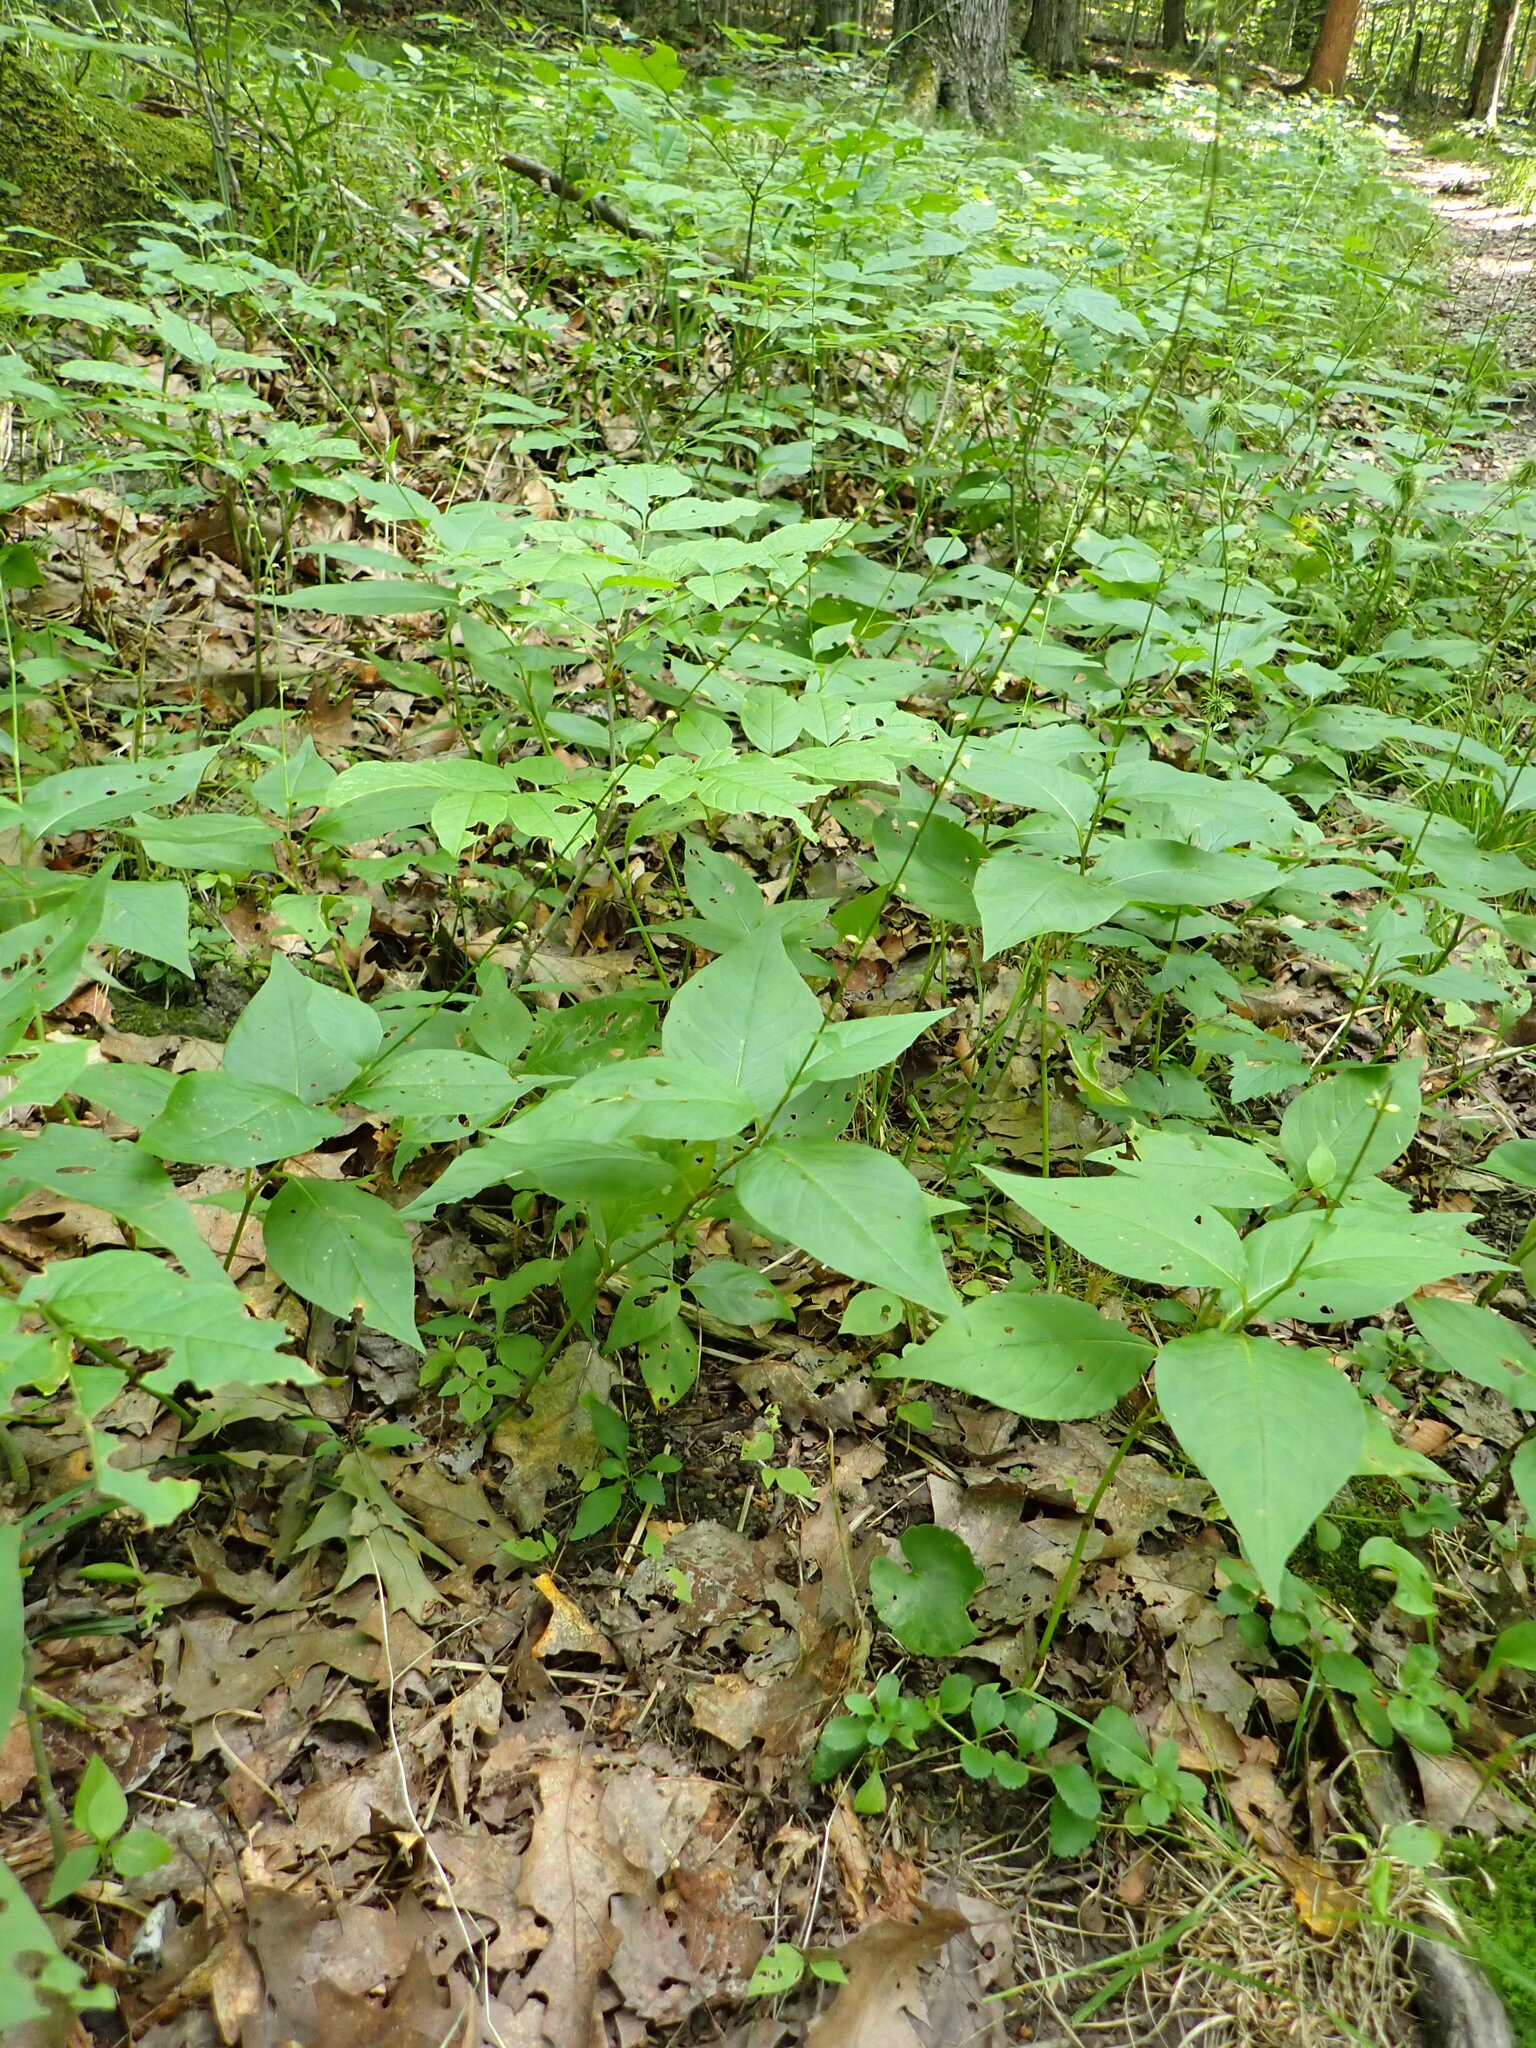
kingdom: Plantae
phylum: Tracheophyta
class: Magnoliopsida
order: Caryophyllales
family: Polygonaceae
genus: Persicaria
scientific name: Persicaria virginiana
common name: Jumpseed
